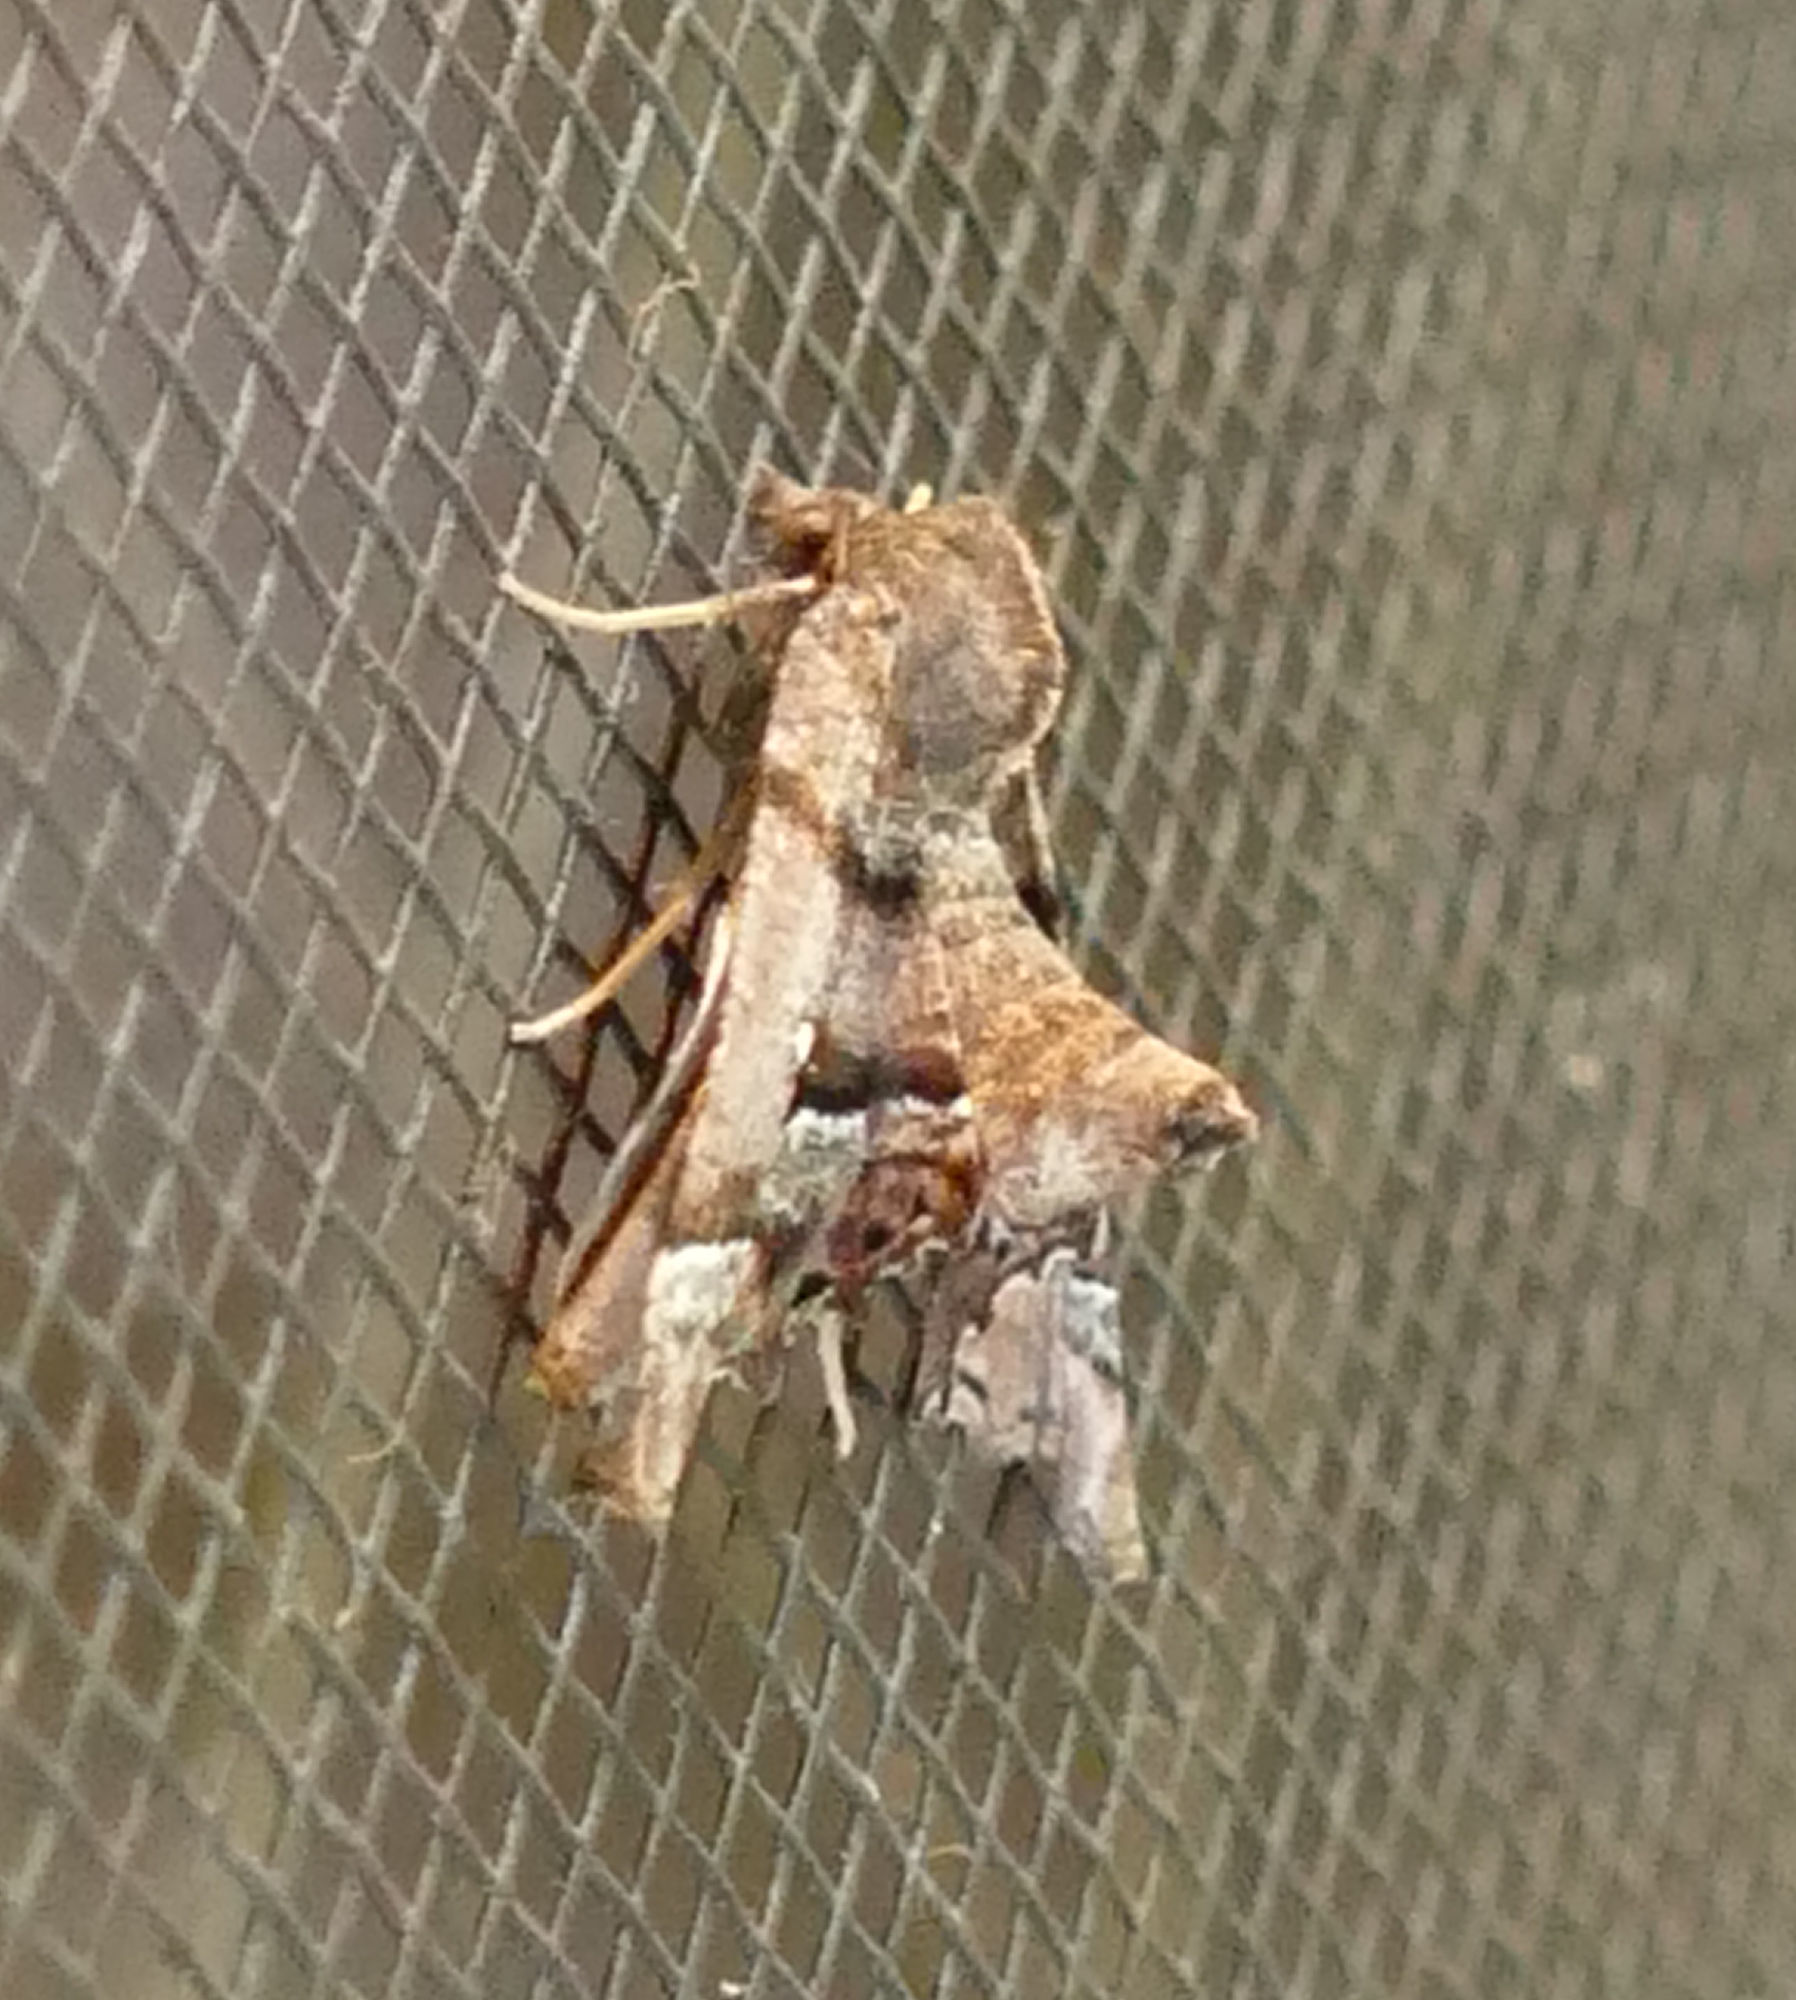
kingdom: Animalia
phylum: Arthropoda
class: Insecta
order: Lepidoptera
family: Geometridae
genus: Pero
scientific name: Pero meskaria
